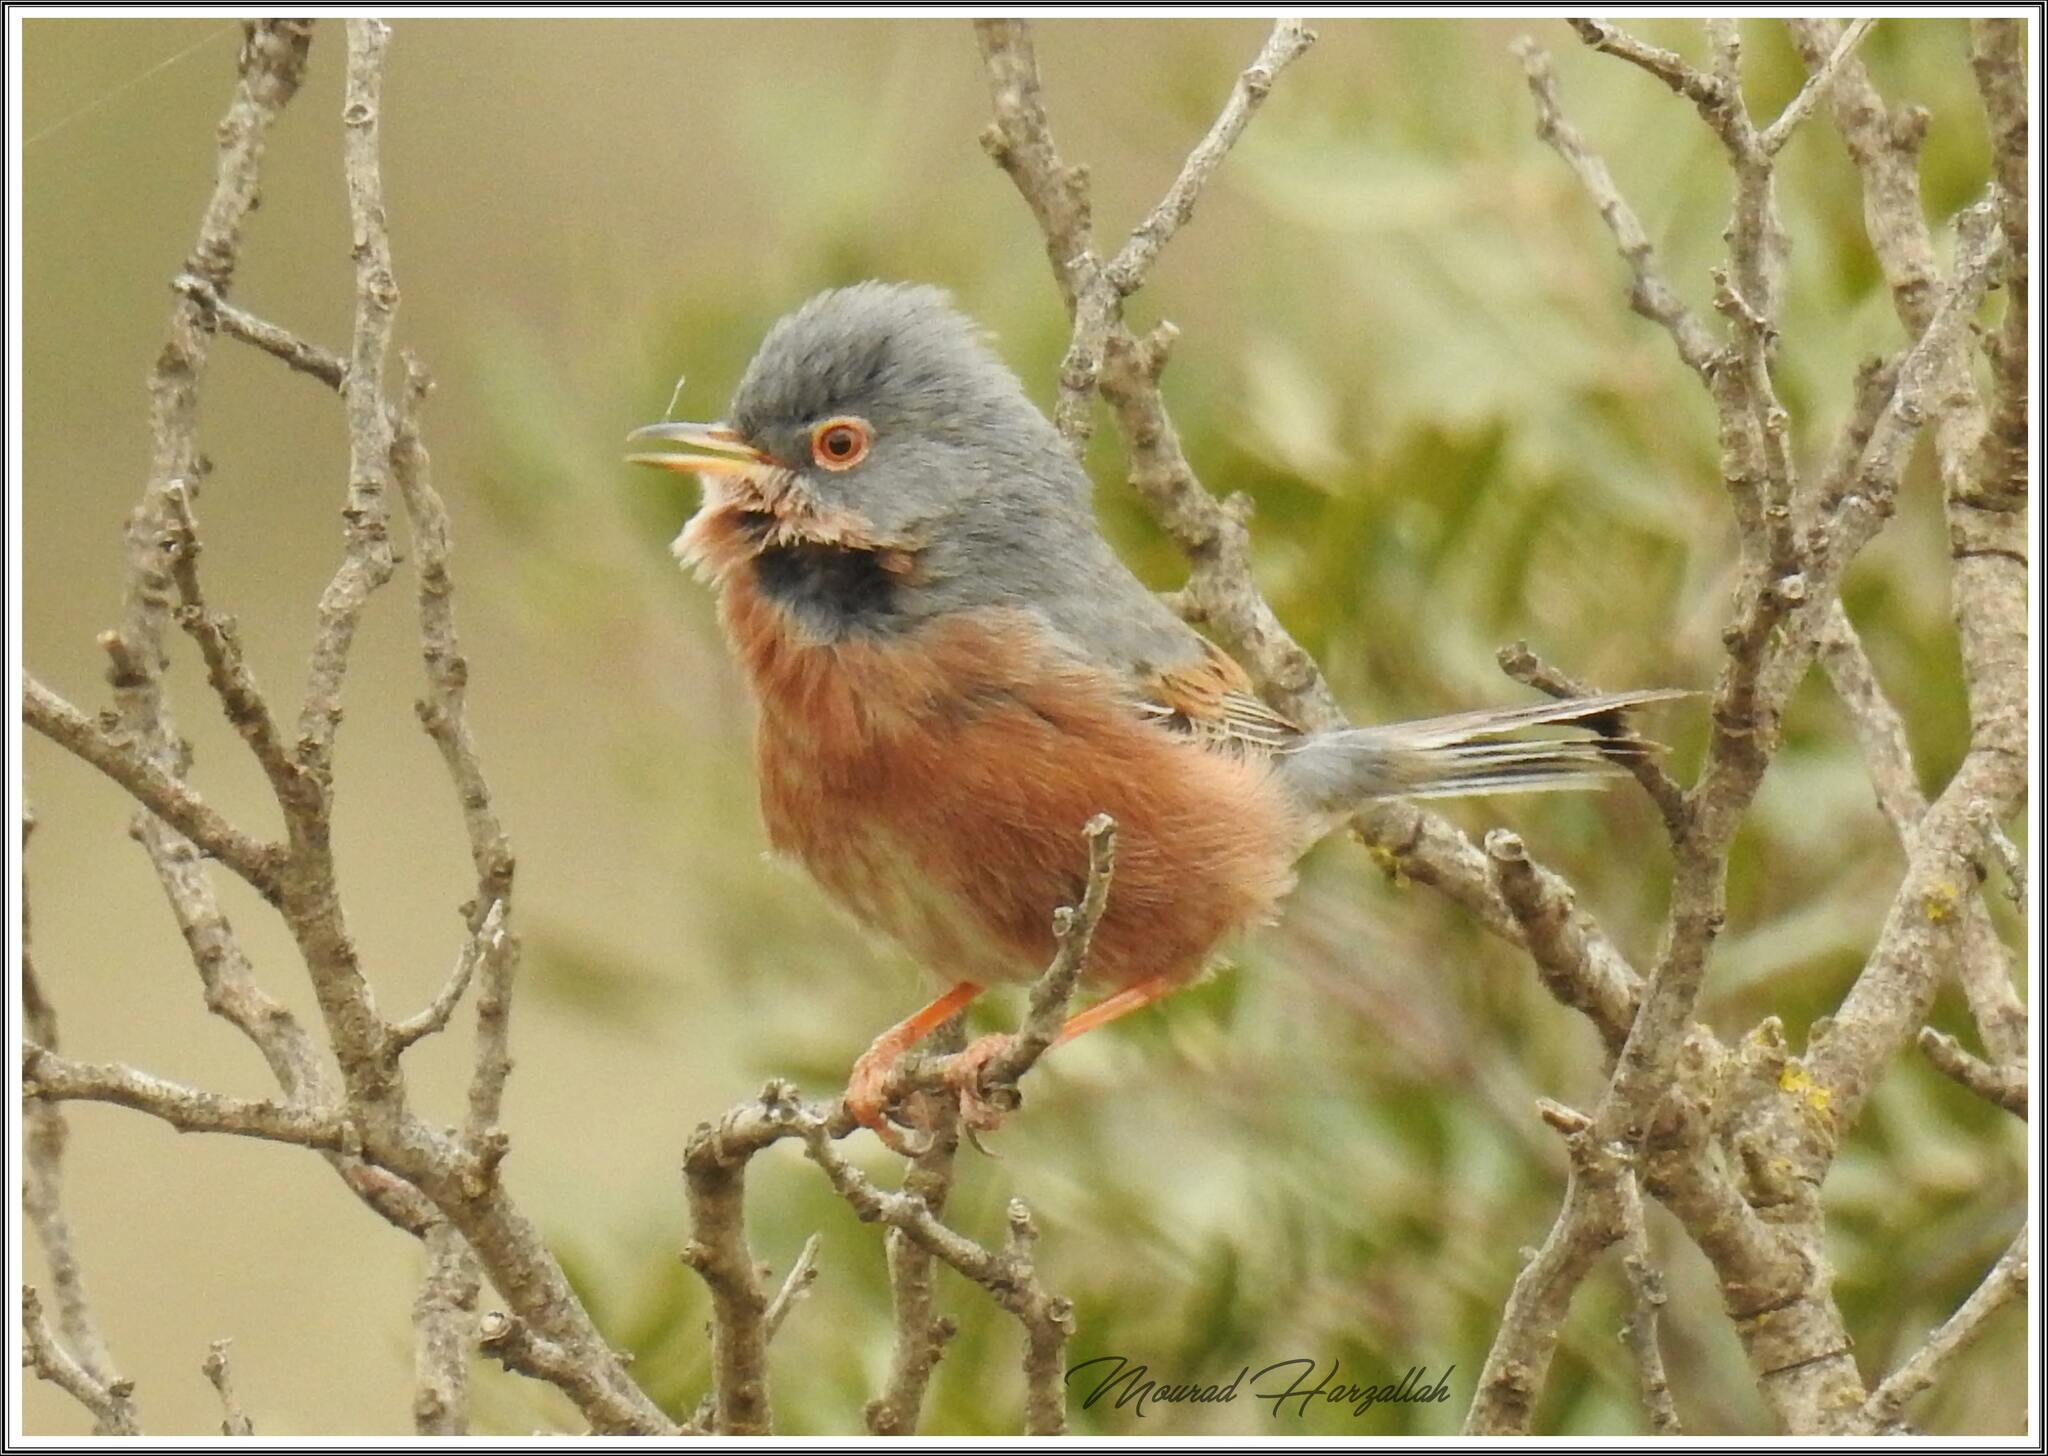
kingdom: Animalia
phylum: Chordata
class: Aves
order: Passeriformes
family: Sylviidae
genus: Sylvia
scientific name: Sylvia deserticola
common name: Tristram's warbler
